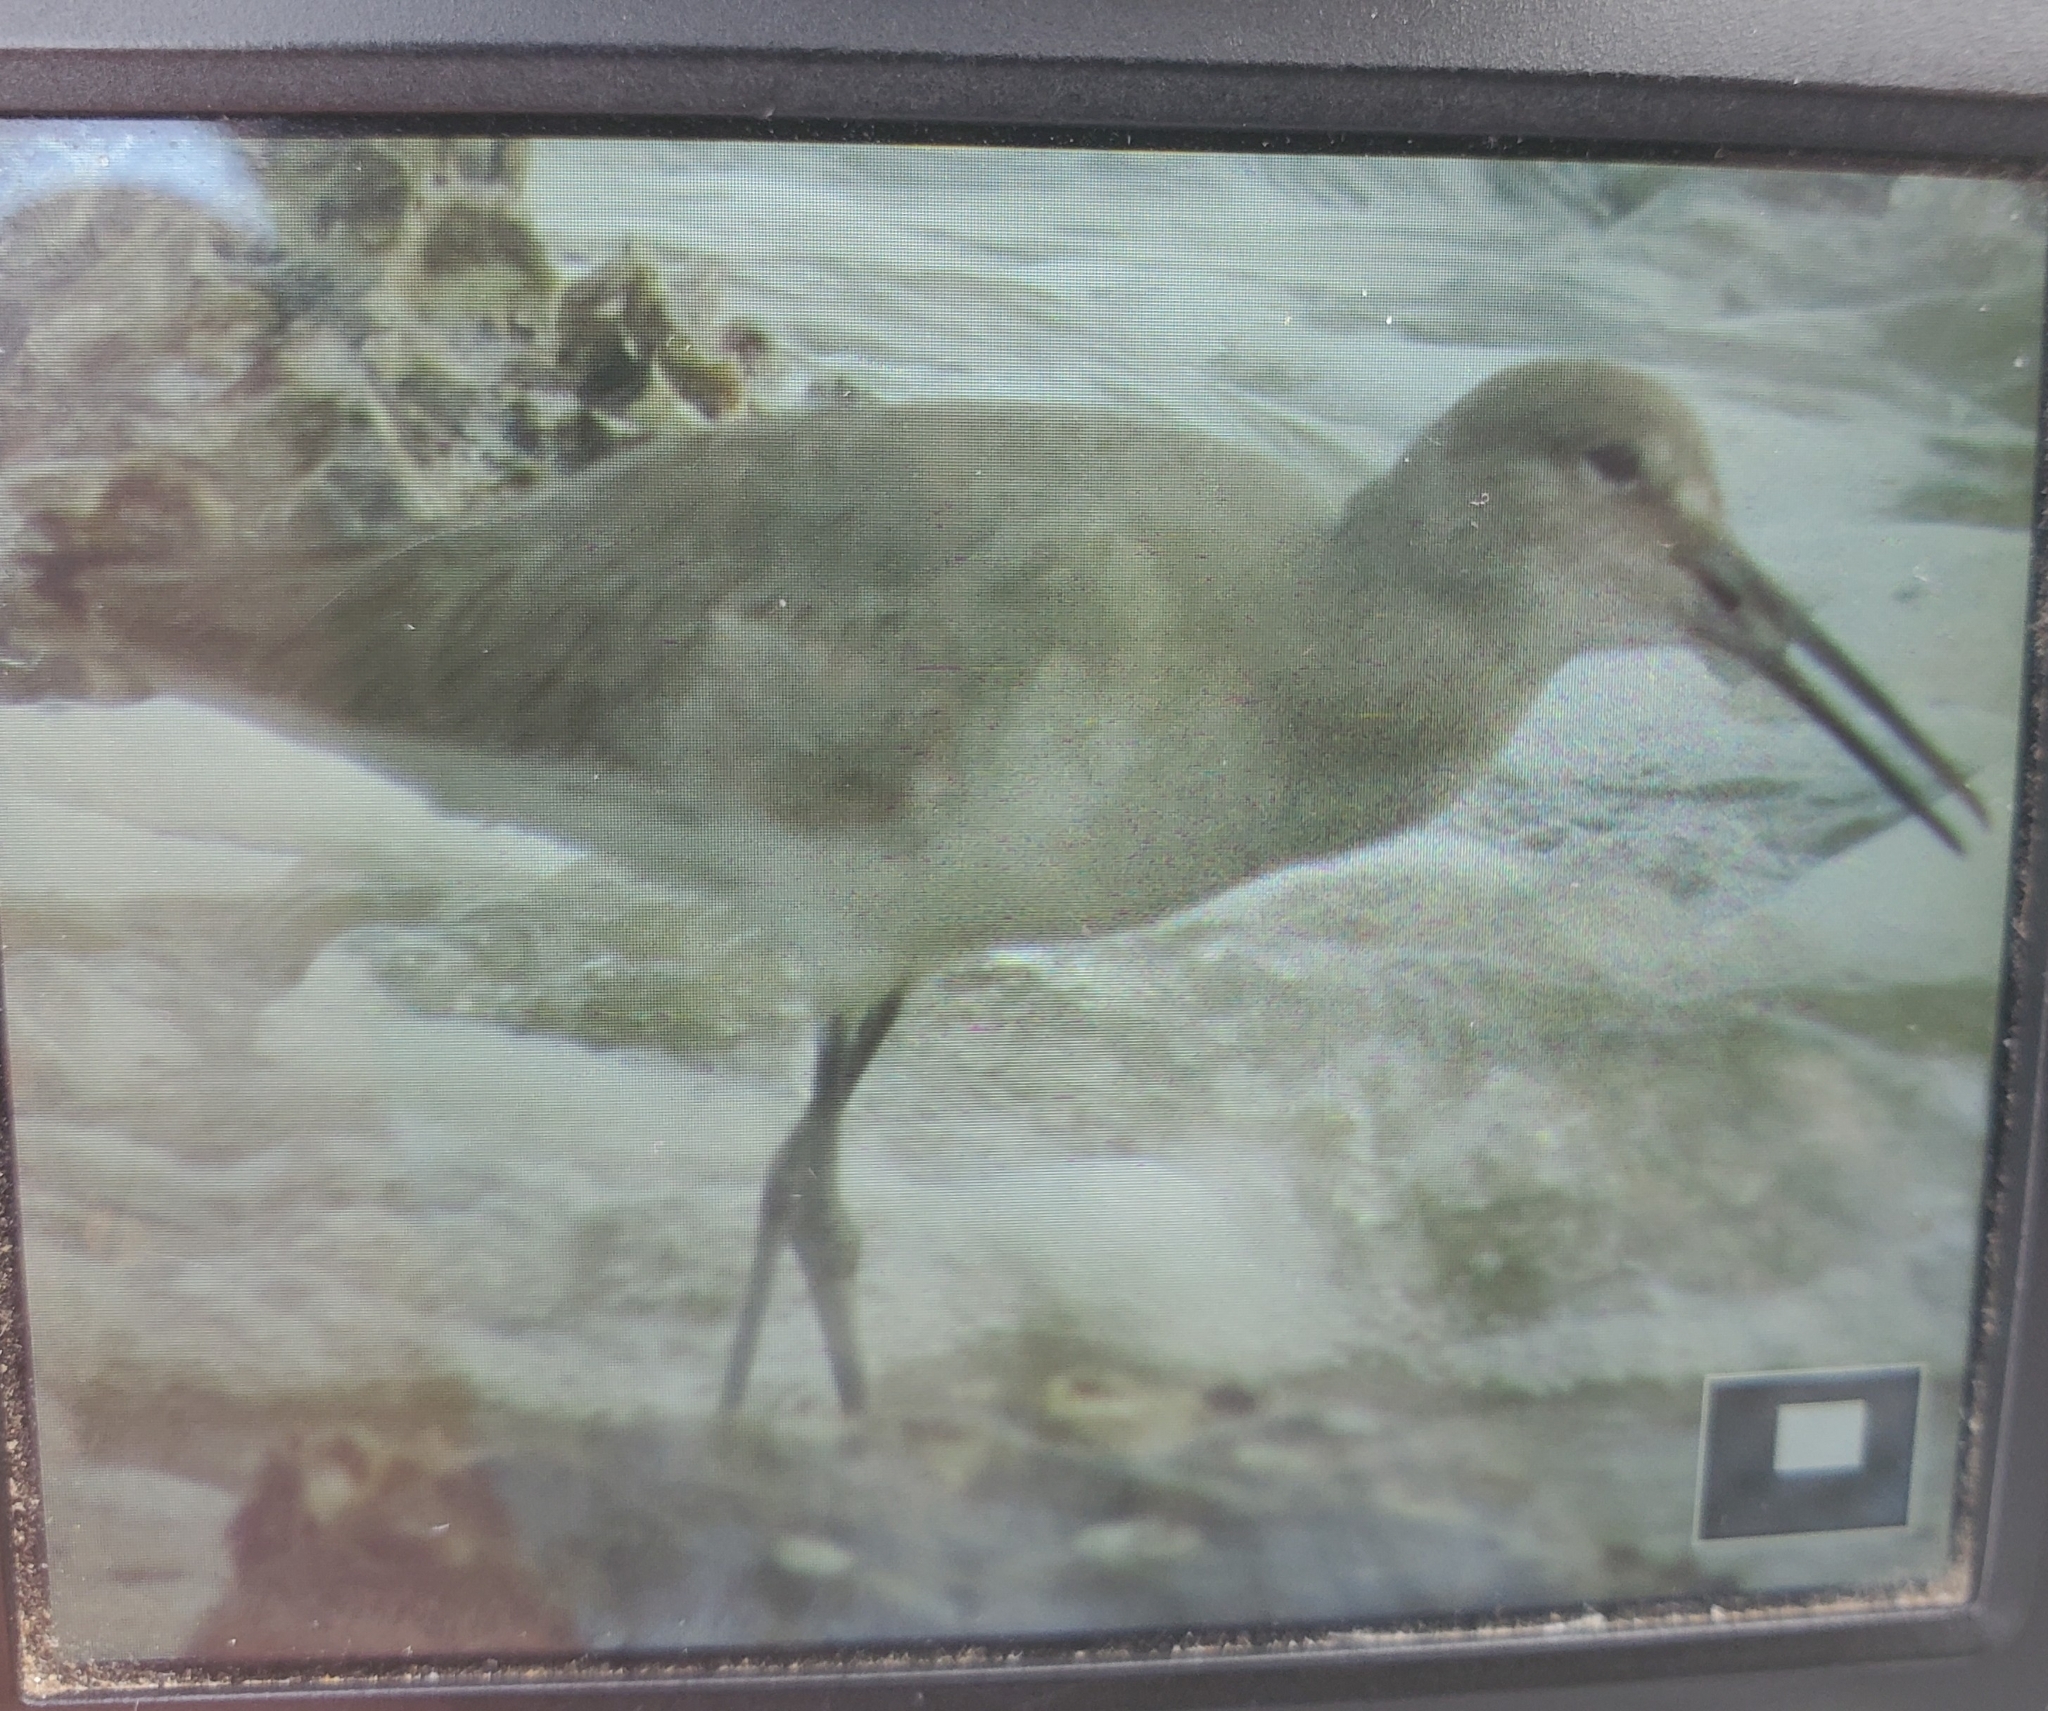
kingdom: Animalia
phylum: Chordata
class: Aves
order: Charadriiformes
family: Scolopacidae
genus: Tringa
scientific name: Tringa semipalmata
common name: Willet
